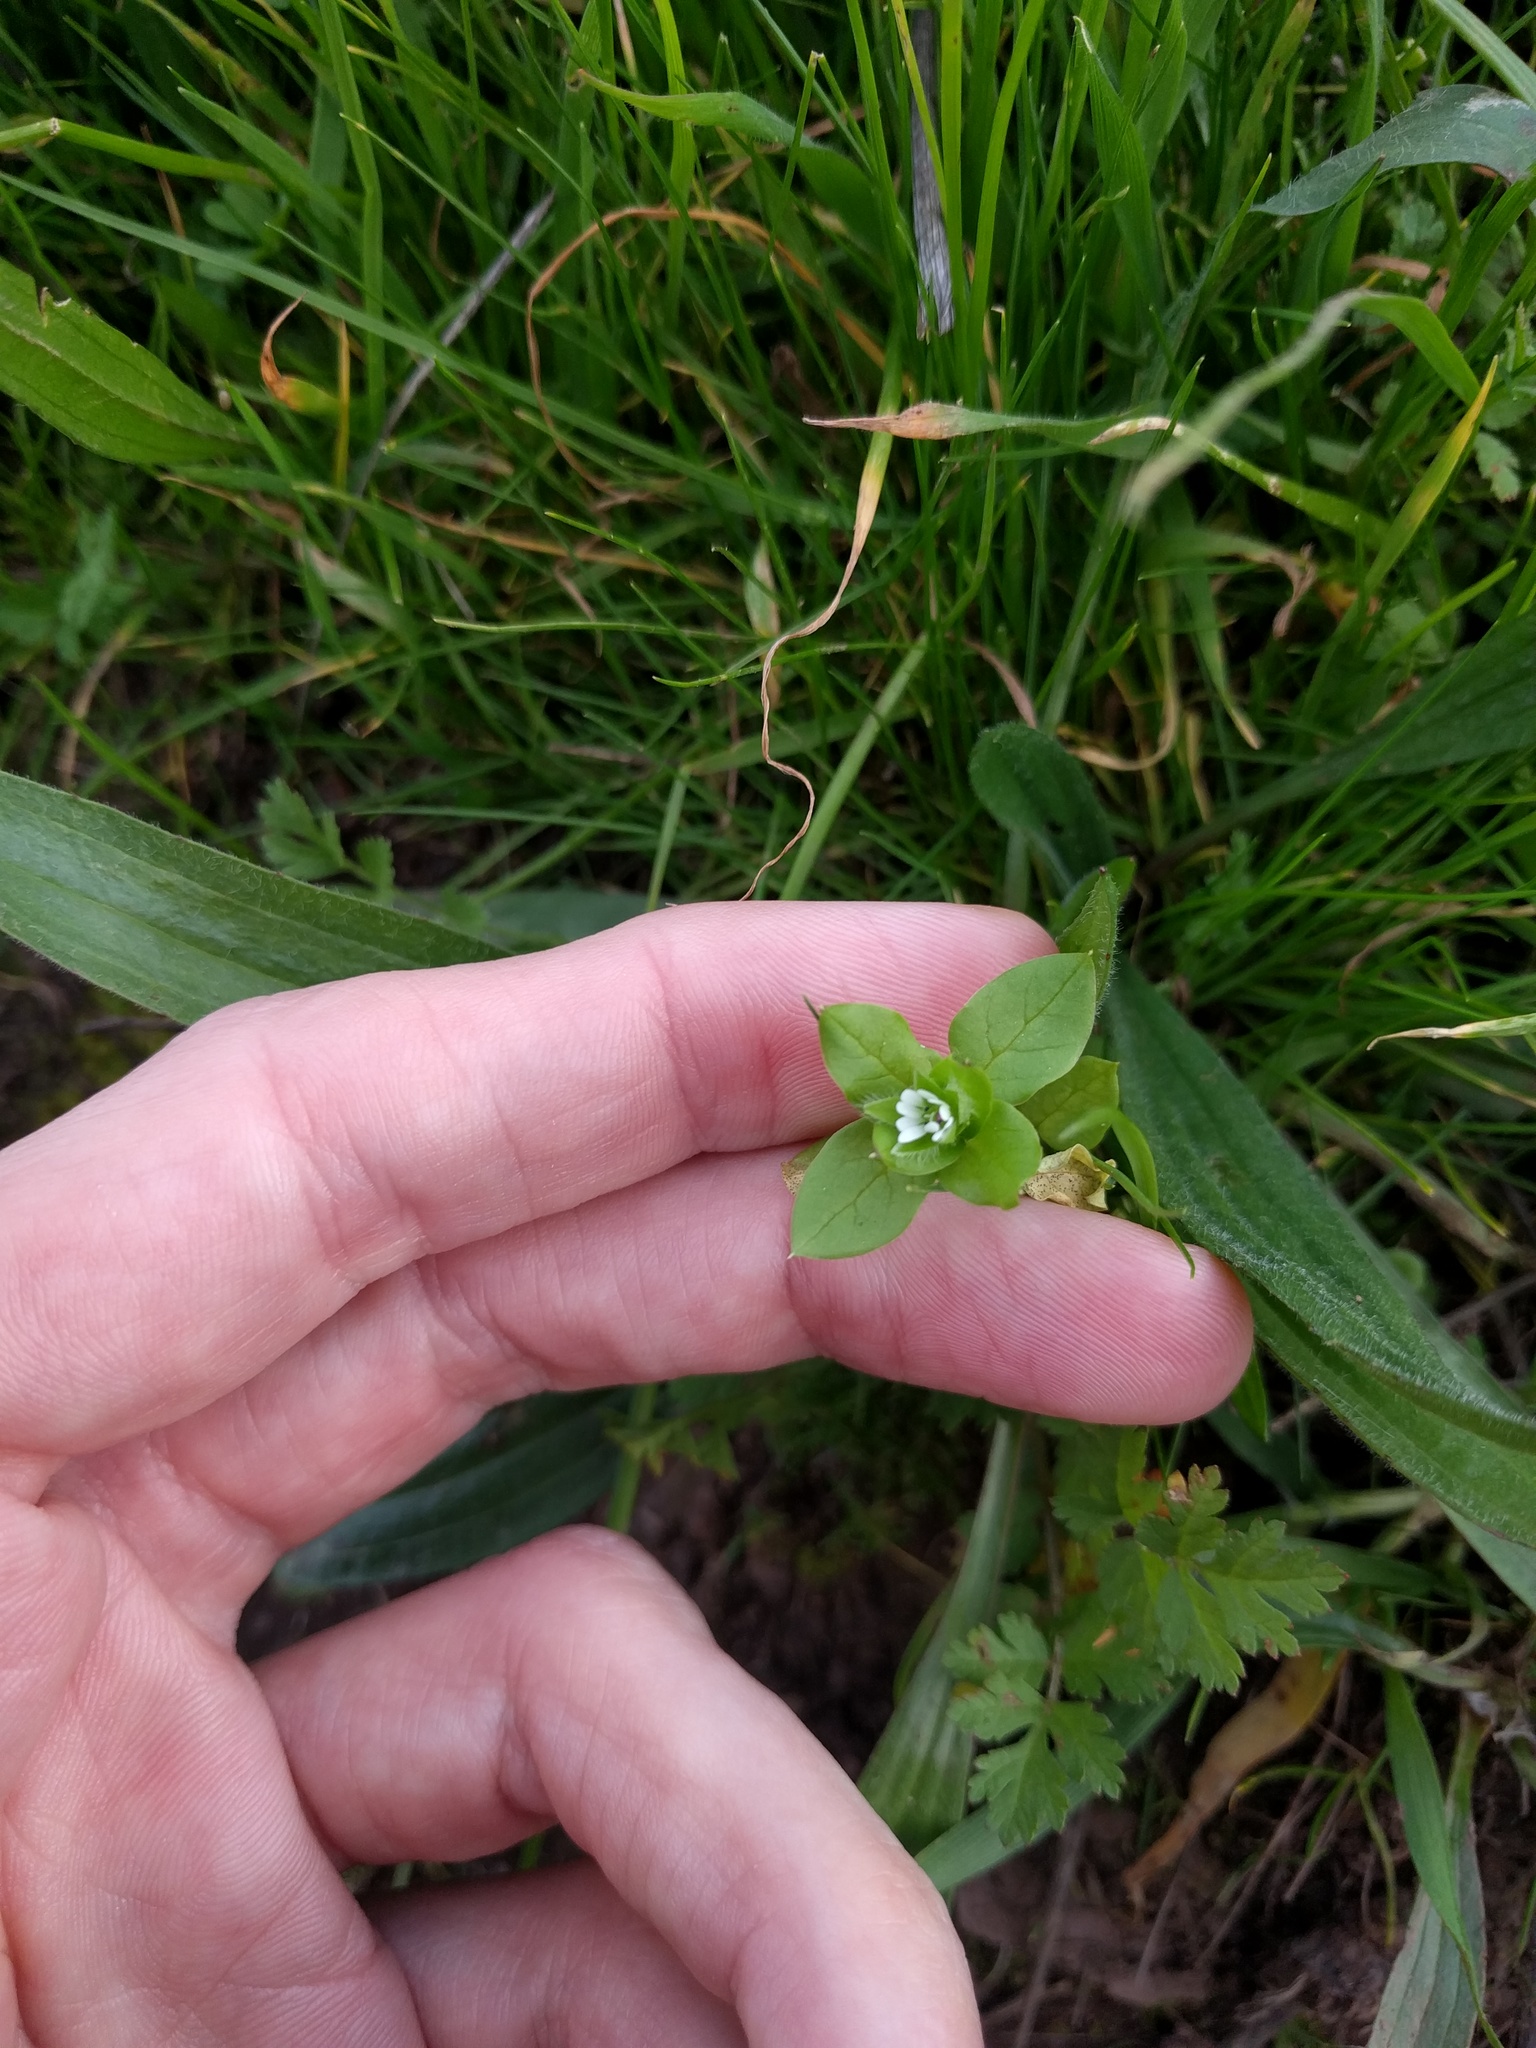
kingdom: Plantae
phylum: Tracheophyta
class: Magnoliopsida
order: Caryophyllales
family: Caryophyllaceae
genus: Stellaria
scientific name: Stellaria media
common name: Common chickweed
